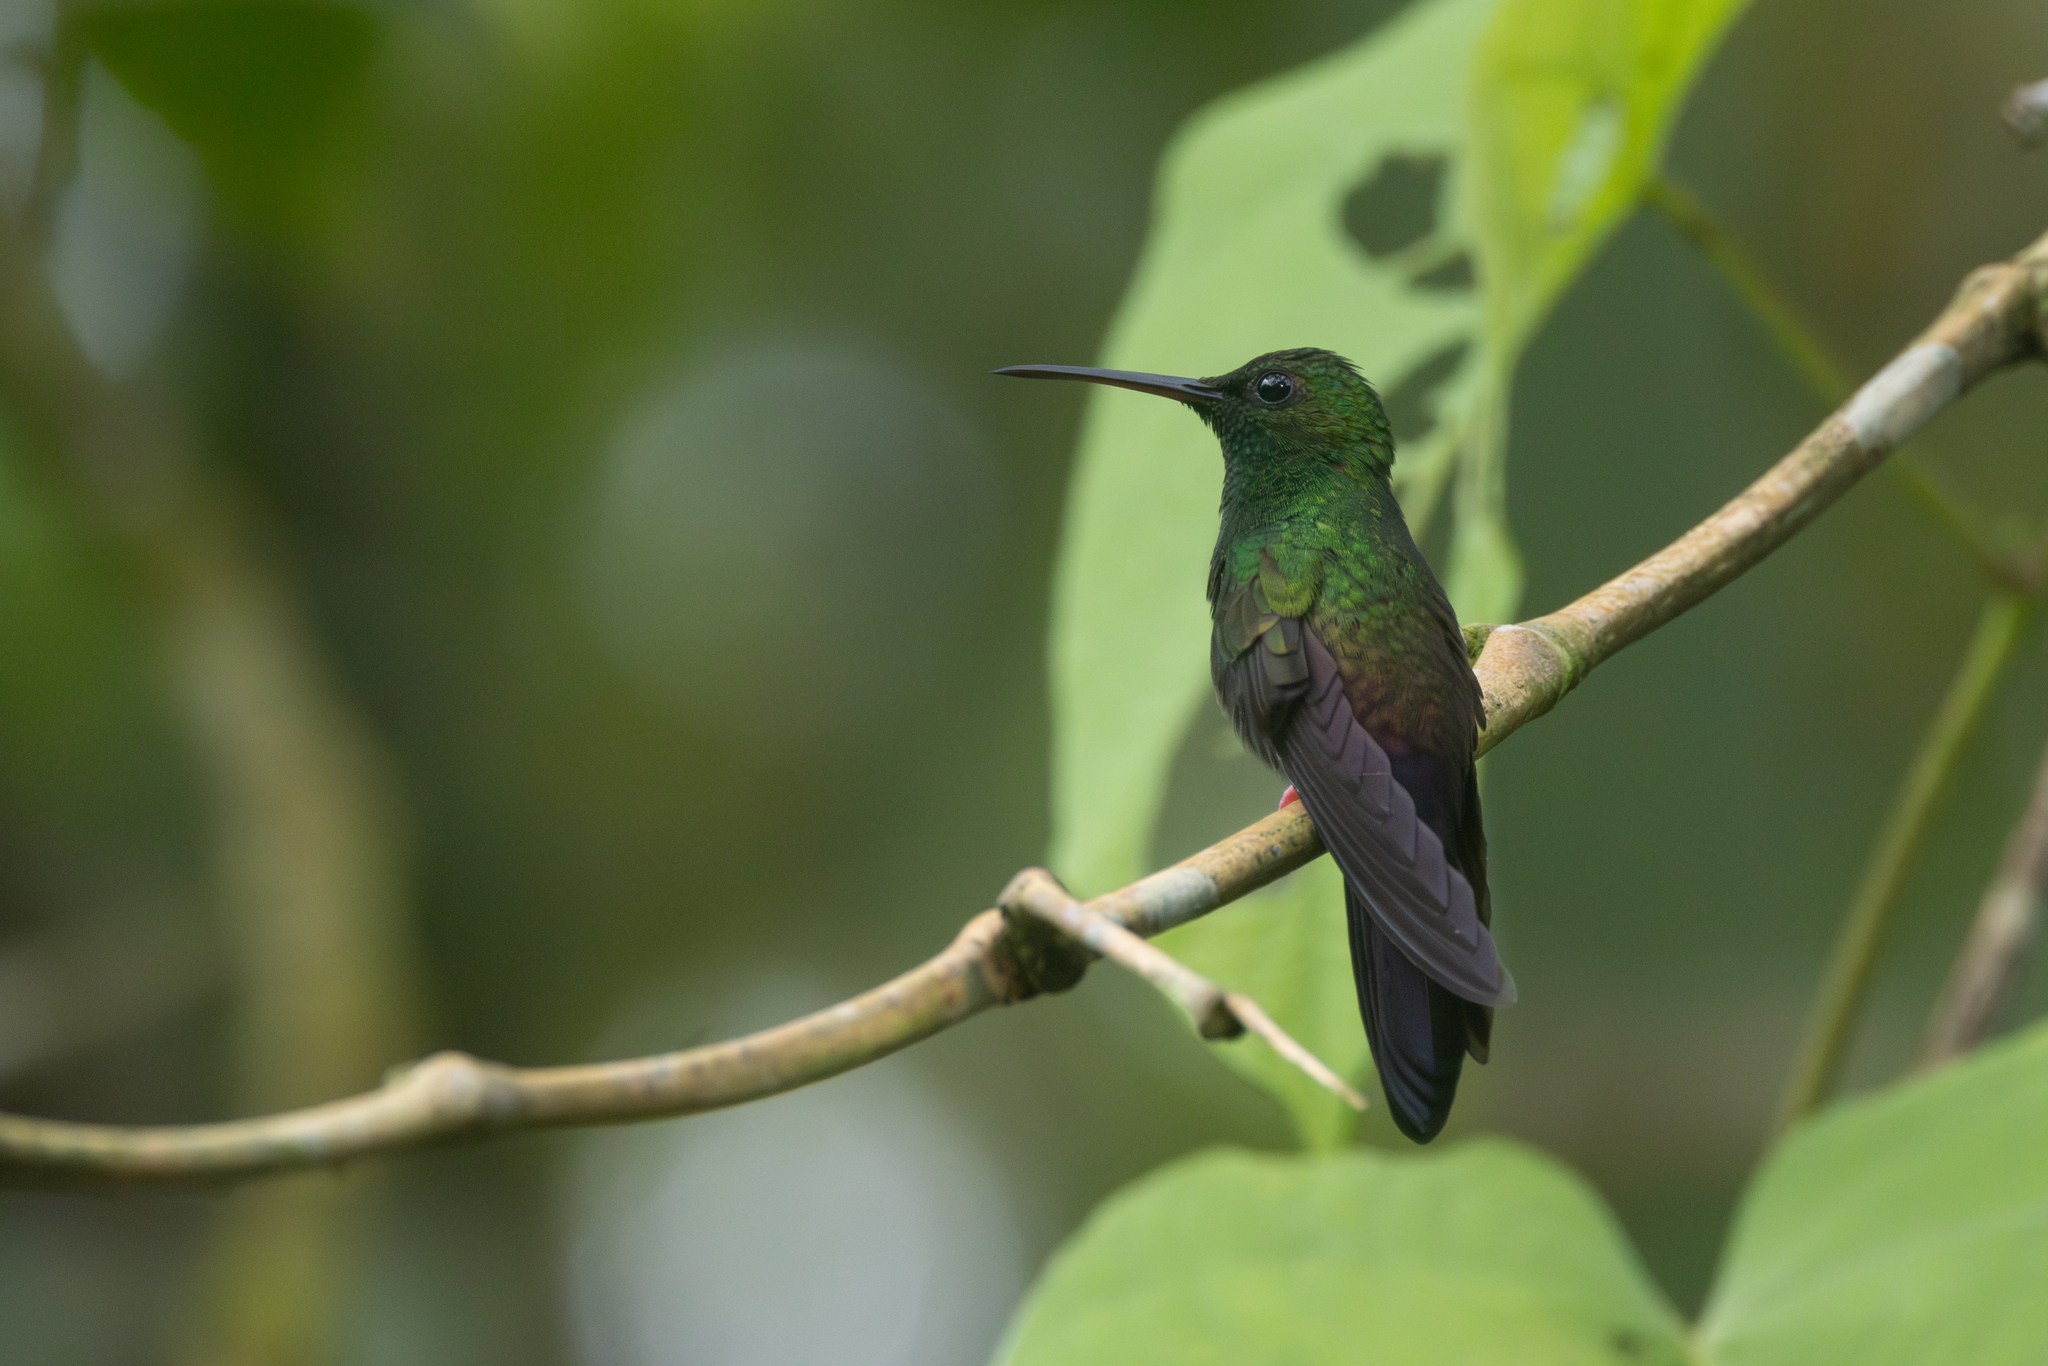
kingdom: Animalia
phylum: Chordata
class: Aves
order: Apodiformes
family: Trochilidae
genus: Chalybura
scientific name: Chalybura urochrysia
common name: Bronze-tailed plumeleteer
